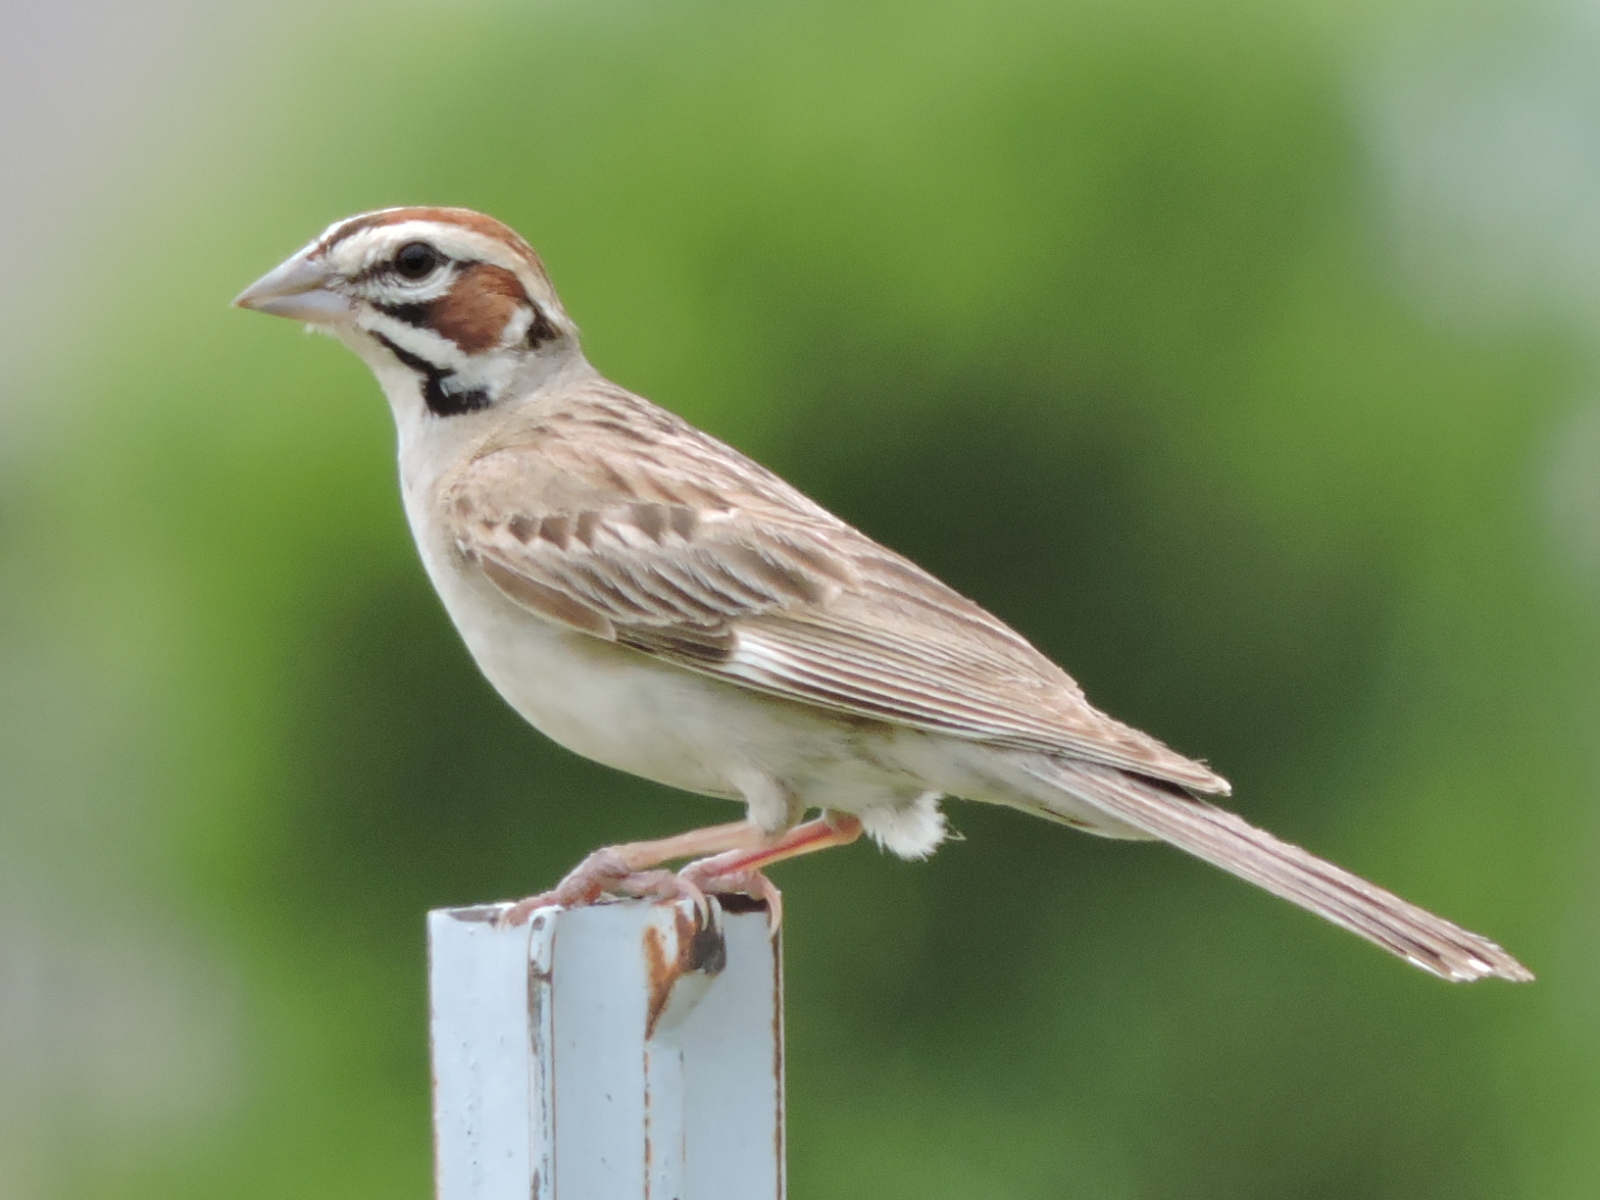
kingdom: Animalia
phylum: Chordata
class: Aves
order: Passeriformes
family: Passerellidae
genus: Chondestes
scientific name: Chondestes grammacus
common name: Lark sparrow
